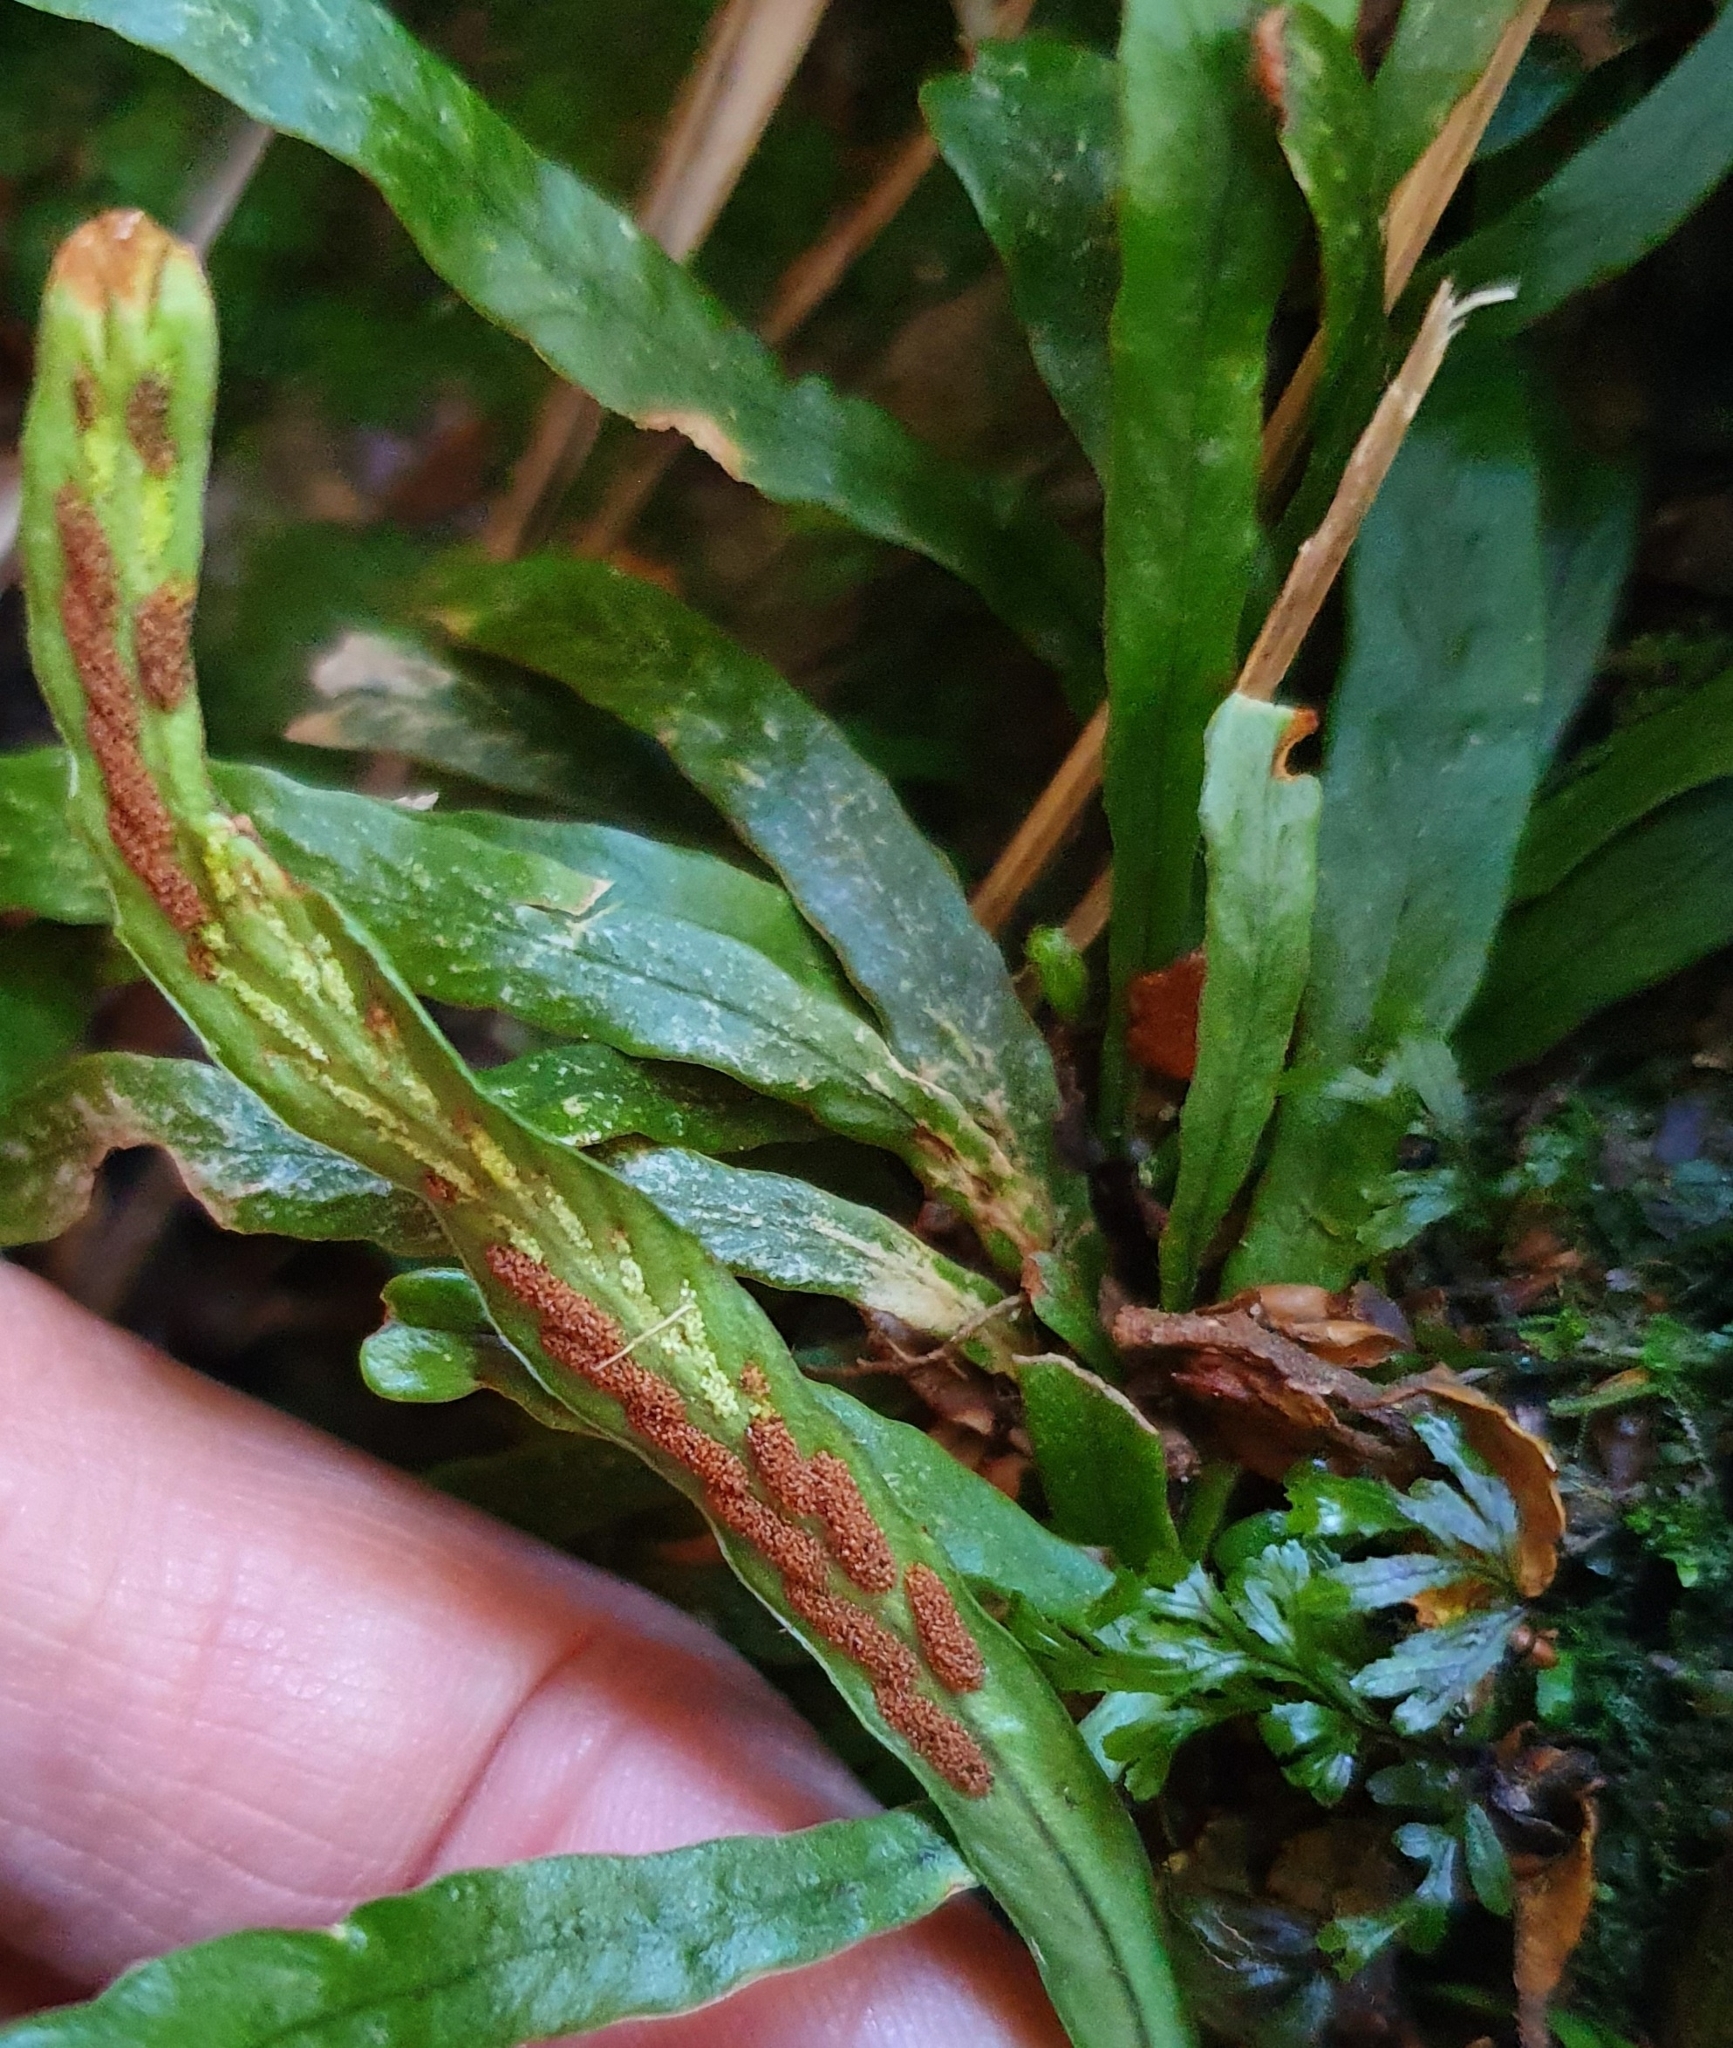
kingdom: Plantae
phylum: Tracheophyta
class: Polypodiopsida
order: Polypodiales
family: Polypodiaceae
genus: Notogrammitis
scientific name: Notogrammitis billardierei
